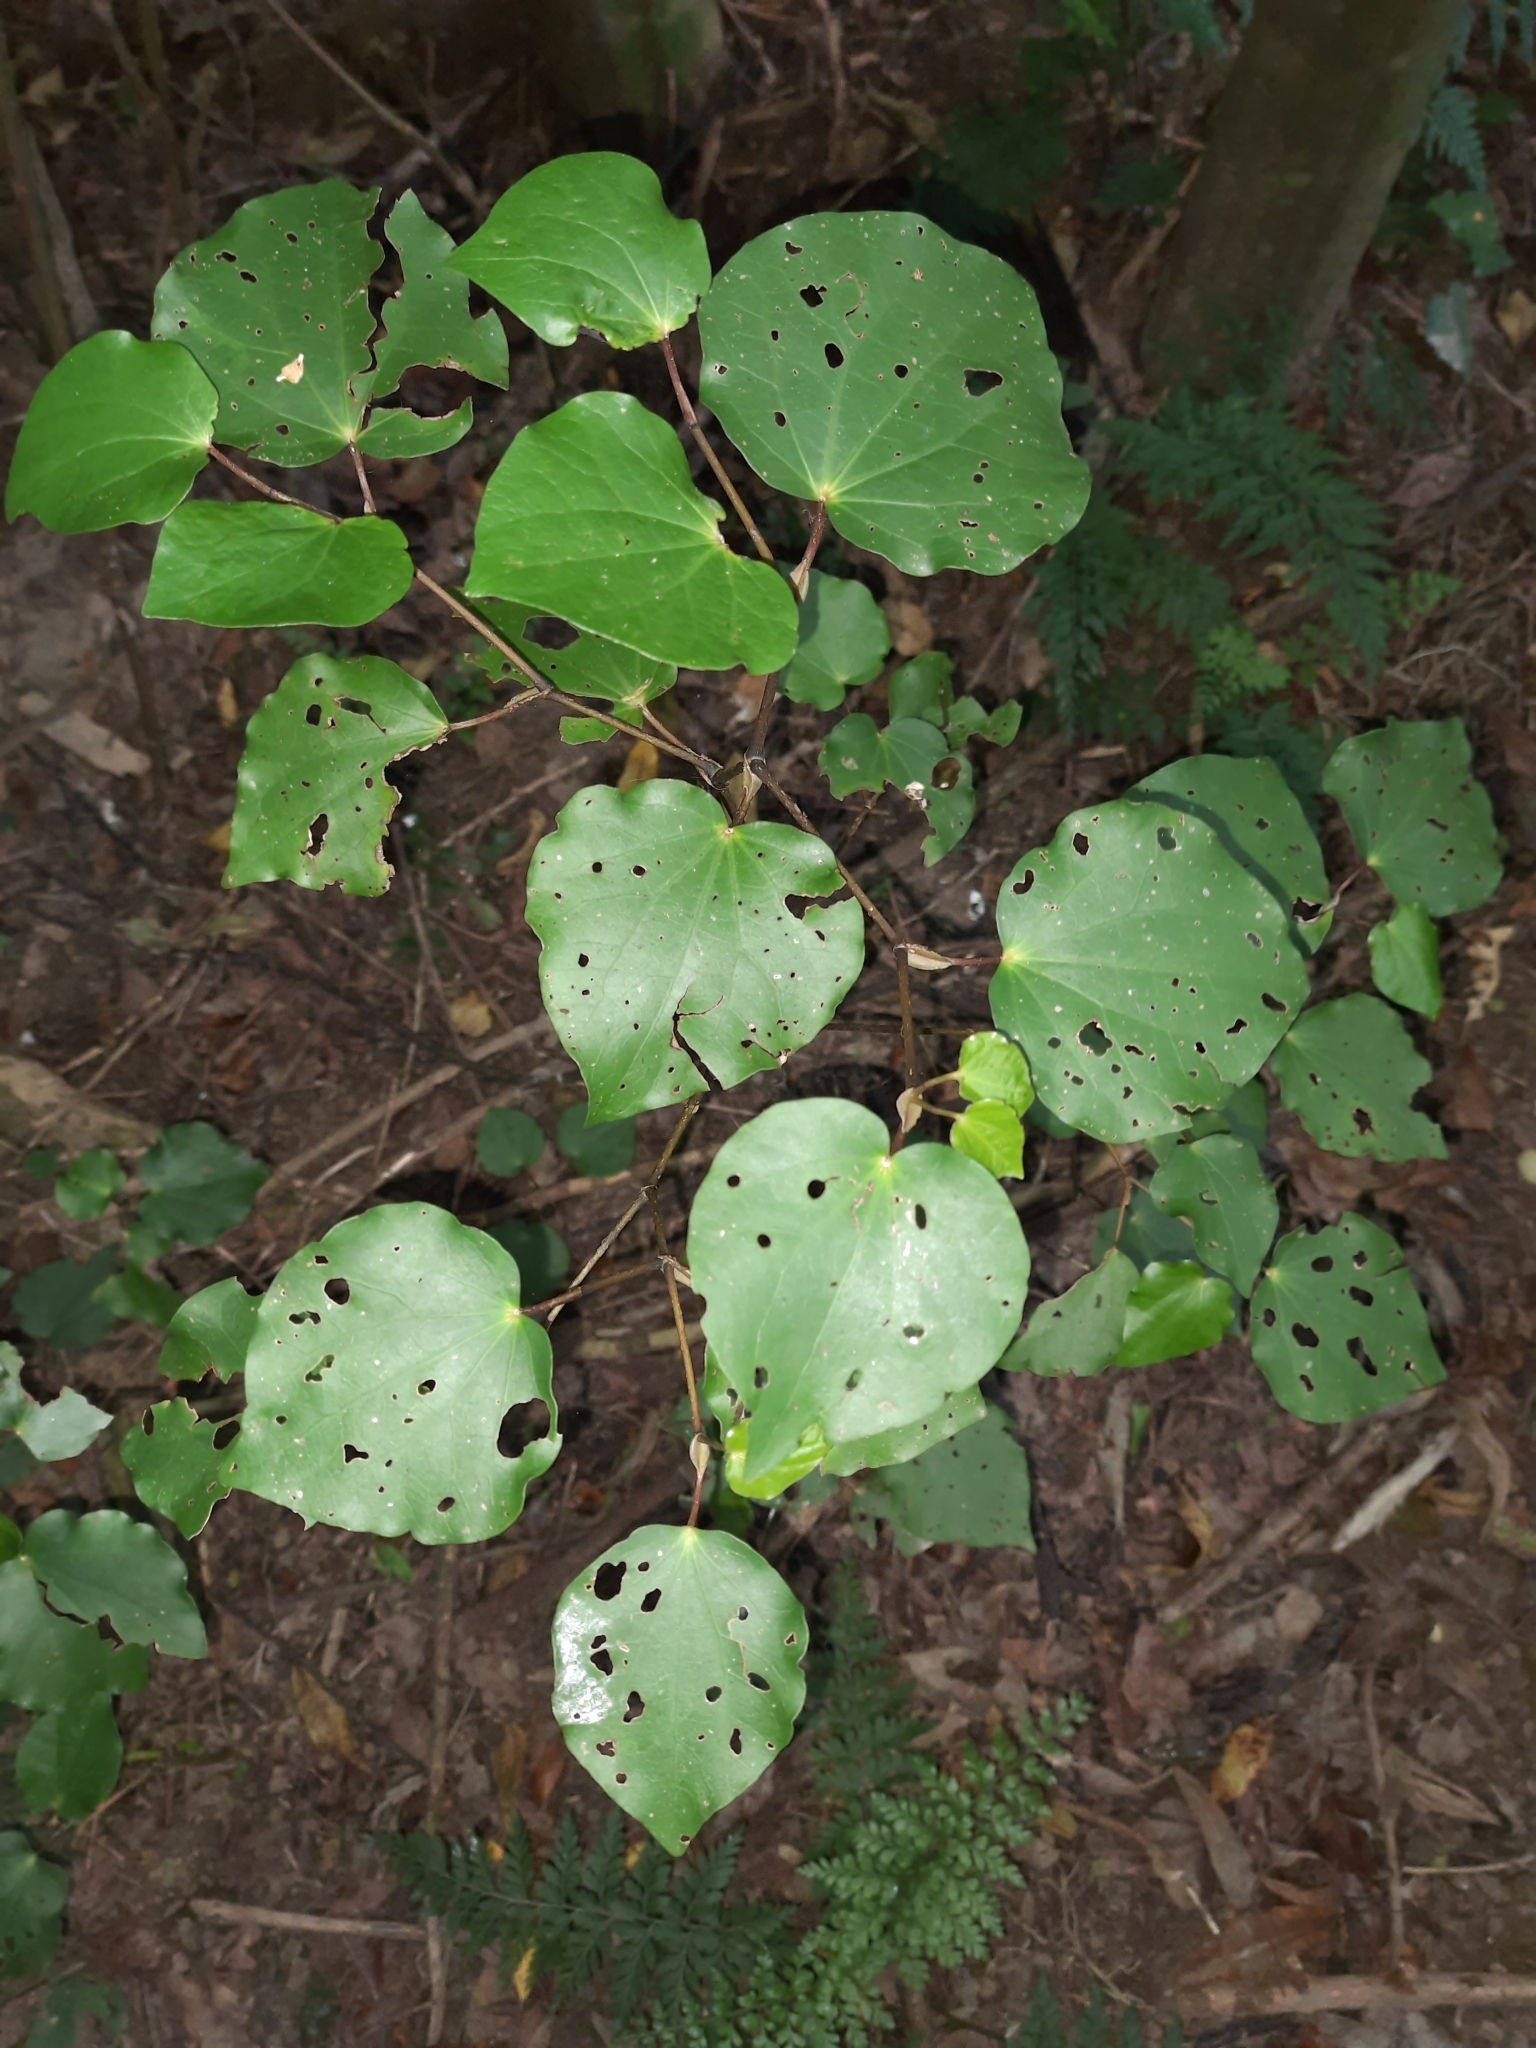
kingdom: Plantae
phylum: Tracheophyta
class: Magnoliopsida
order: Piperales
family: Piperaceae
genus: Macropiper
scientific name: Macropiper excelsum
